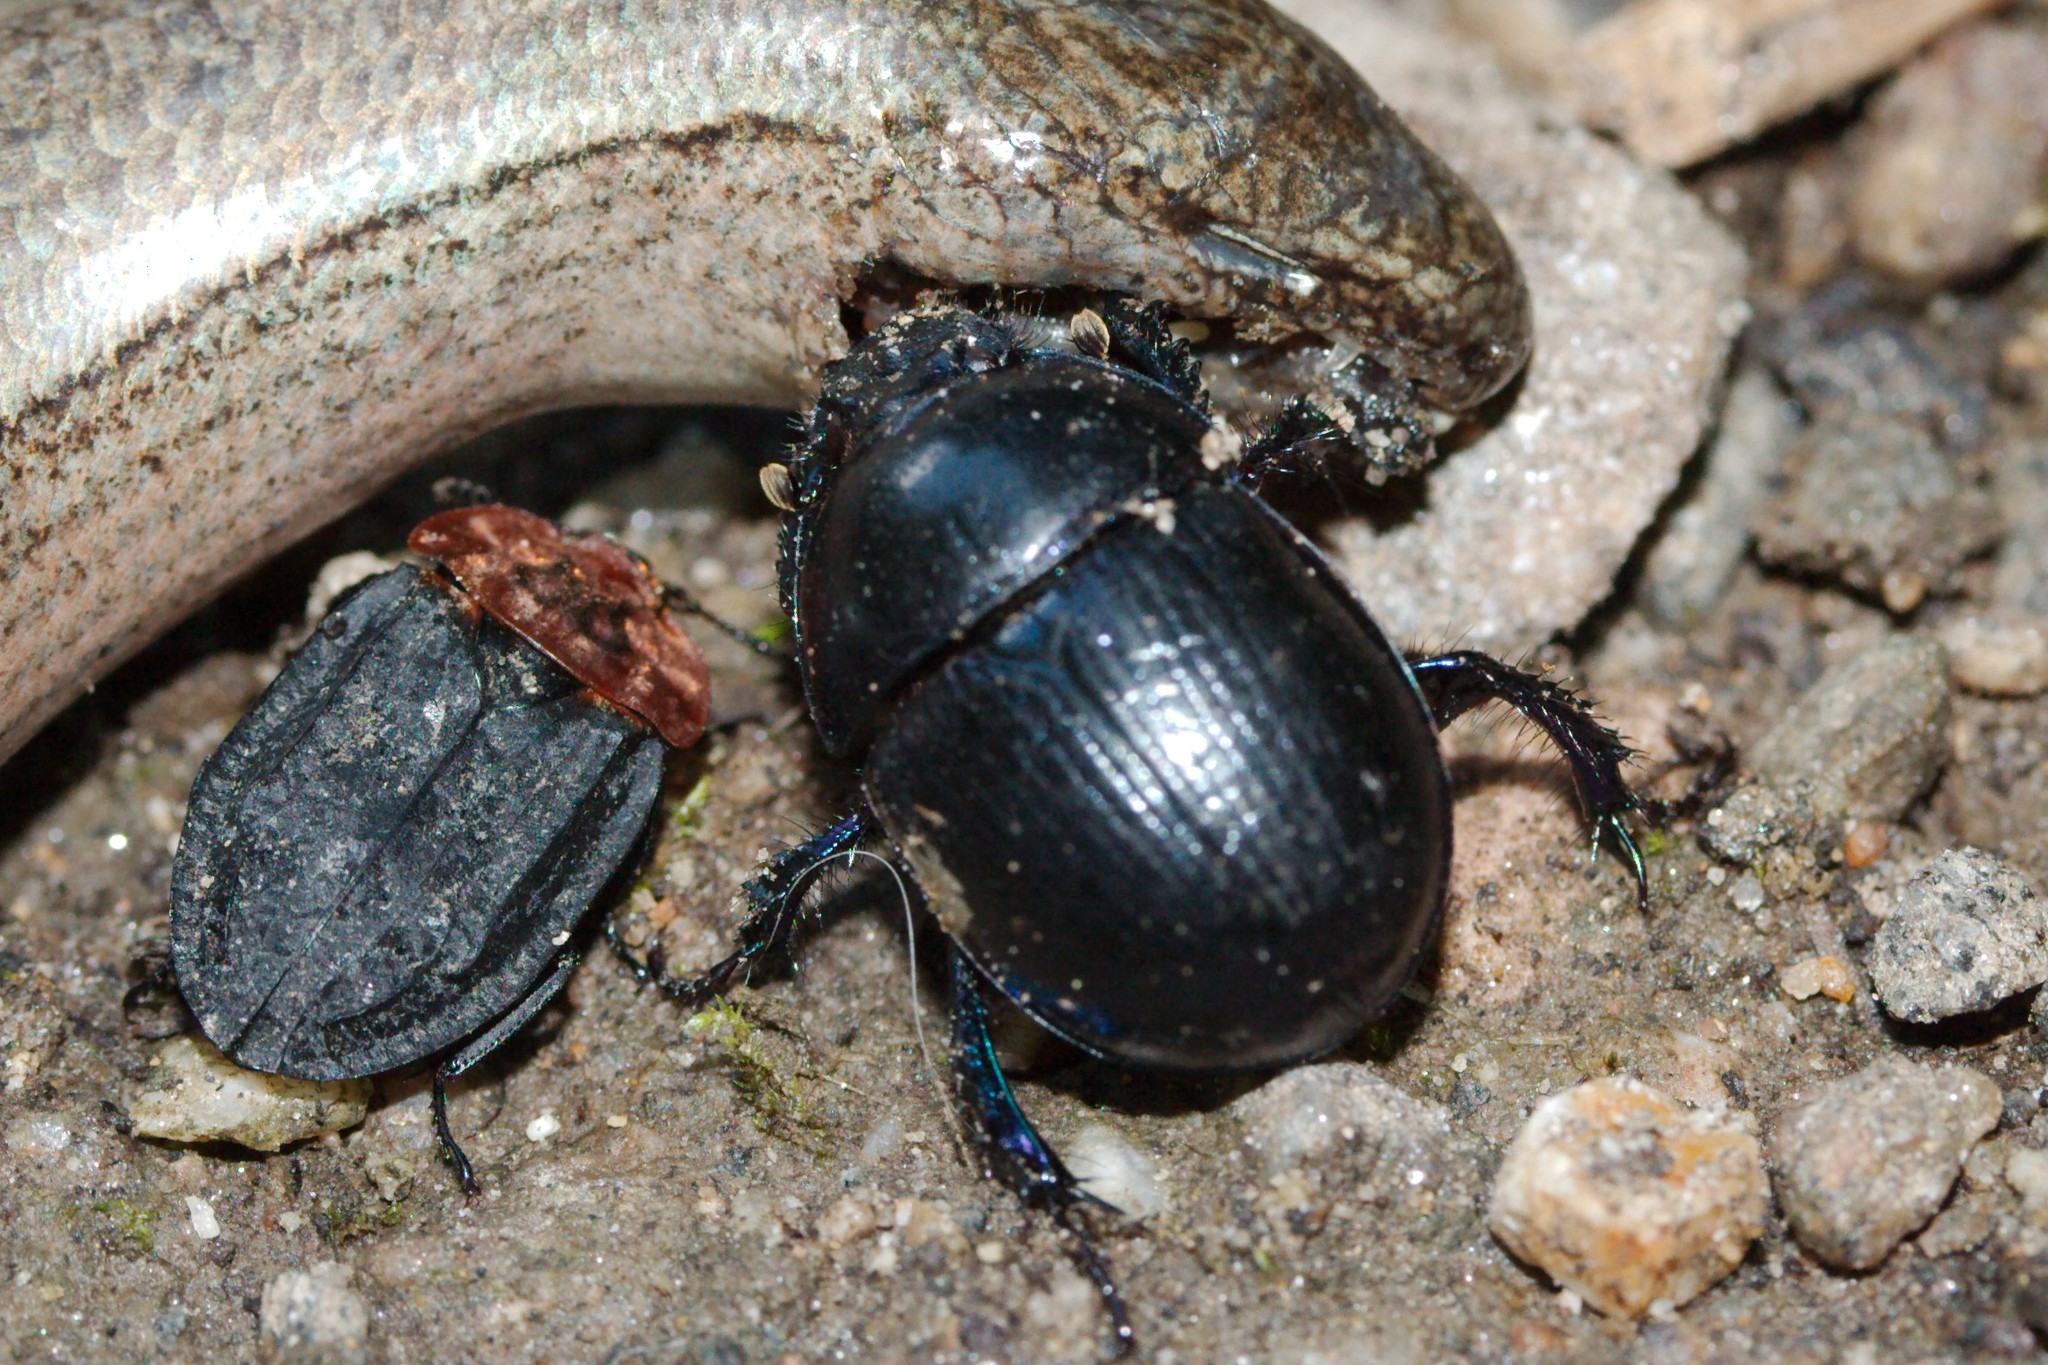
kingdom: Animalia
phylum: Arthropoda
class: Insecta
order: Coleoptera
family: Geotrupidae
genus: Anoplotrupes
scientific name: Anoplotrupes stercorosus
